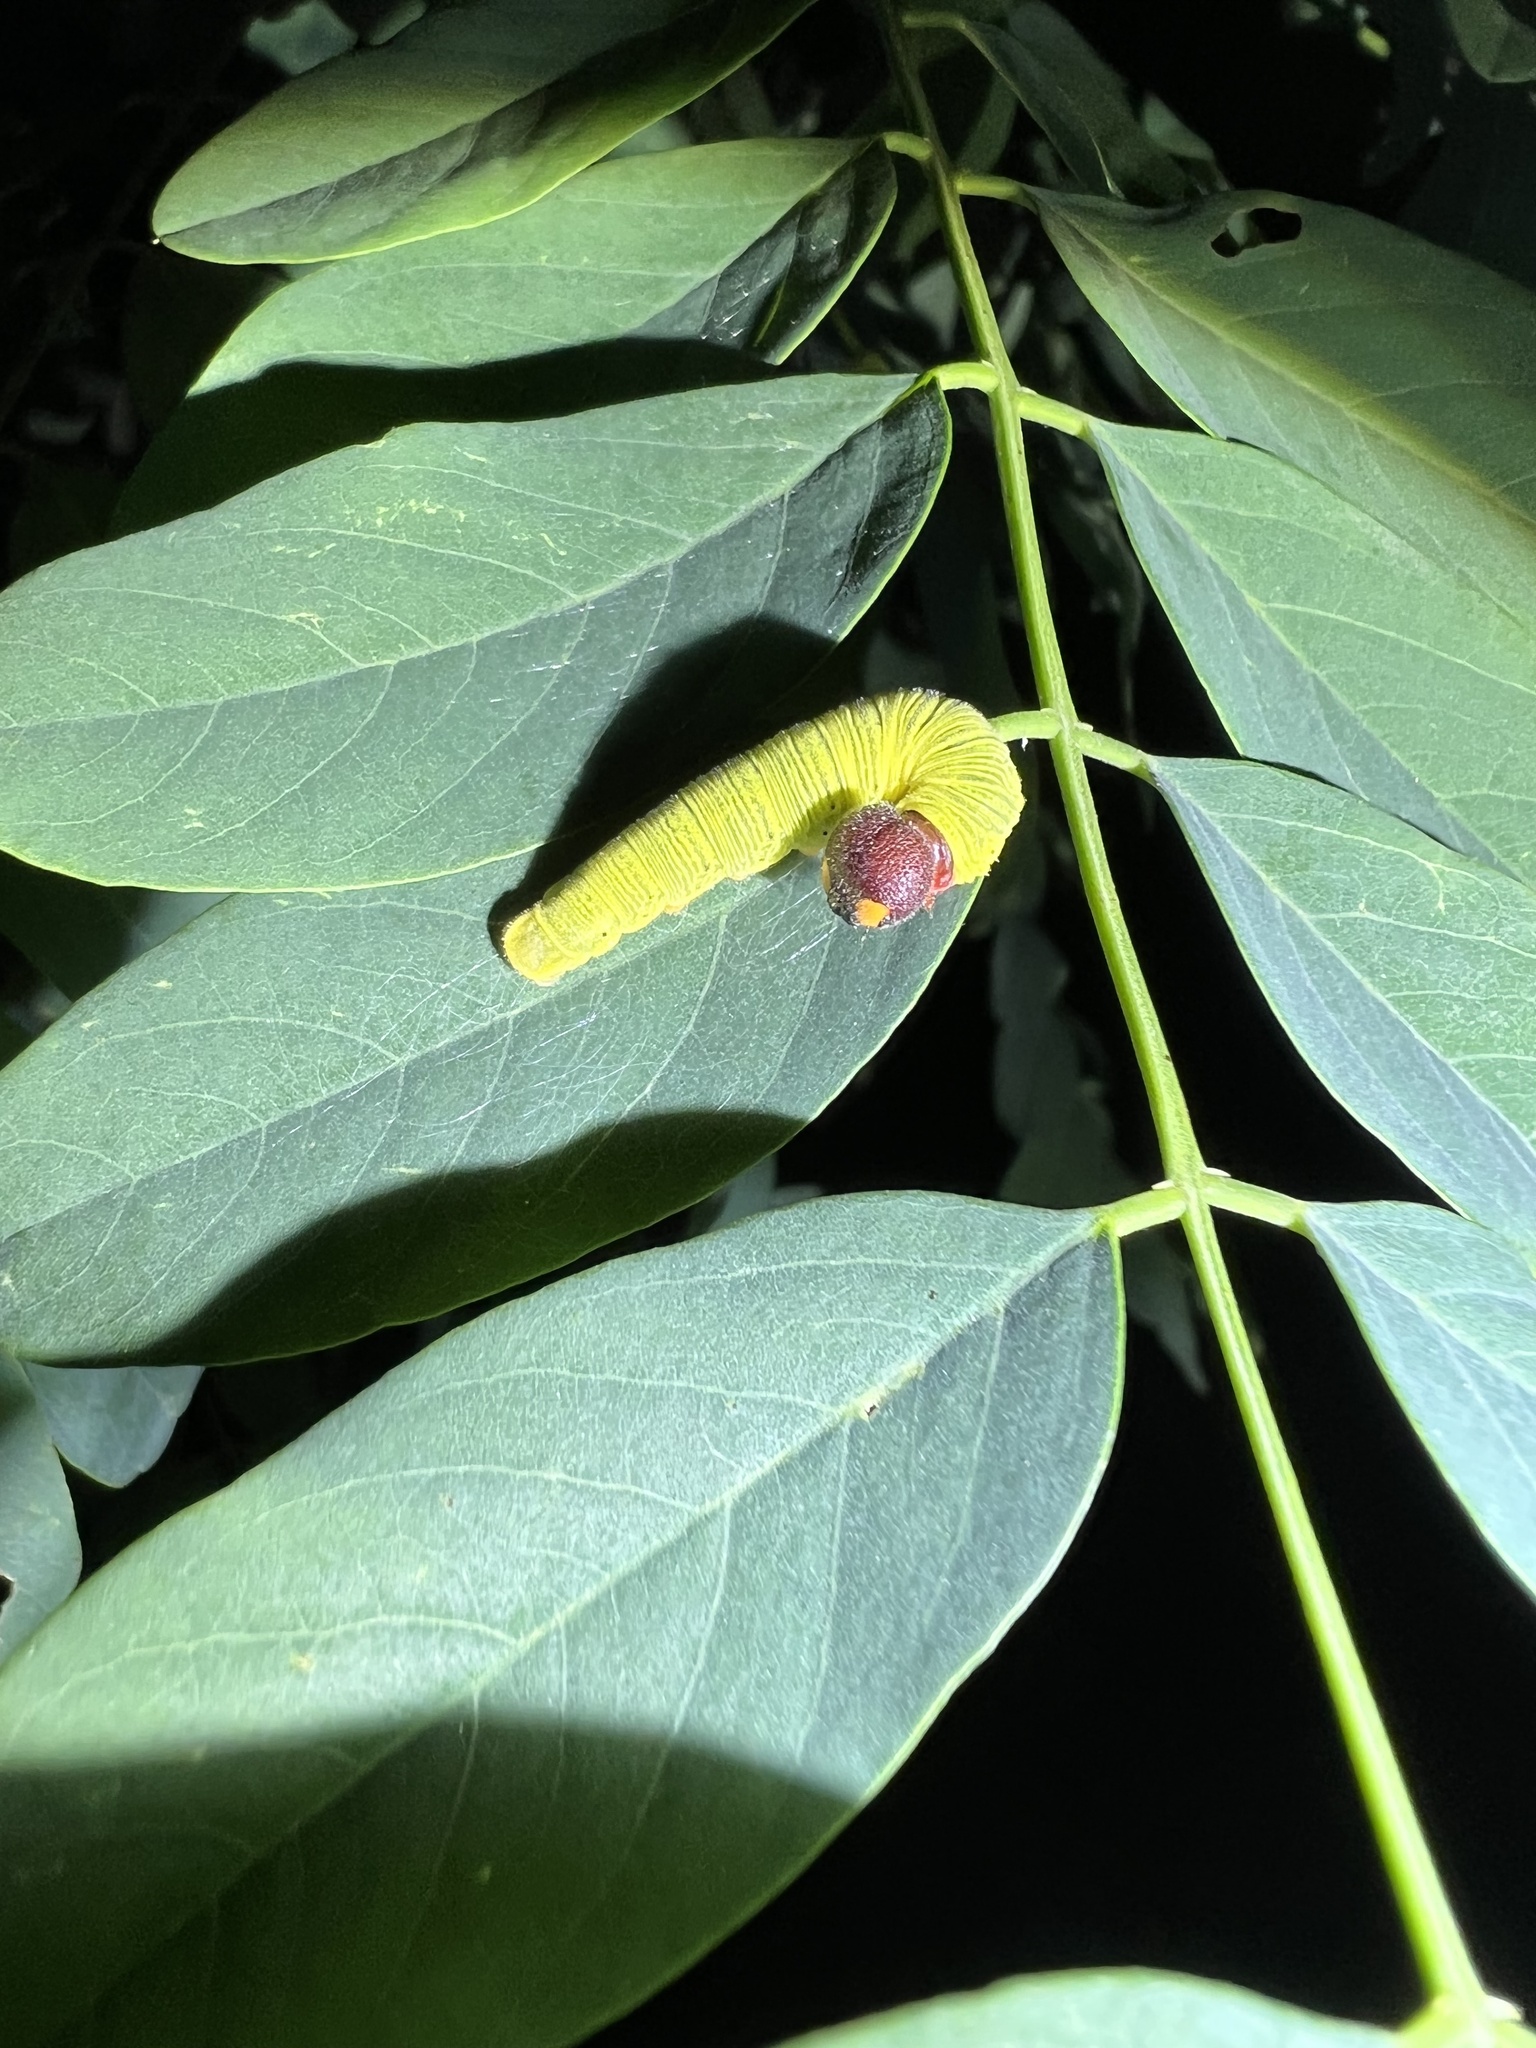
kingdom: Animalia
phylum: Arthropoda
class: Insecta
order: Lepidoptera
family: Hesperiidae
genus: Epargyreus
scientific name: Epargyreus clarus
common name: Silver-spotted skipper
